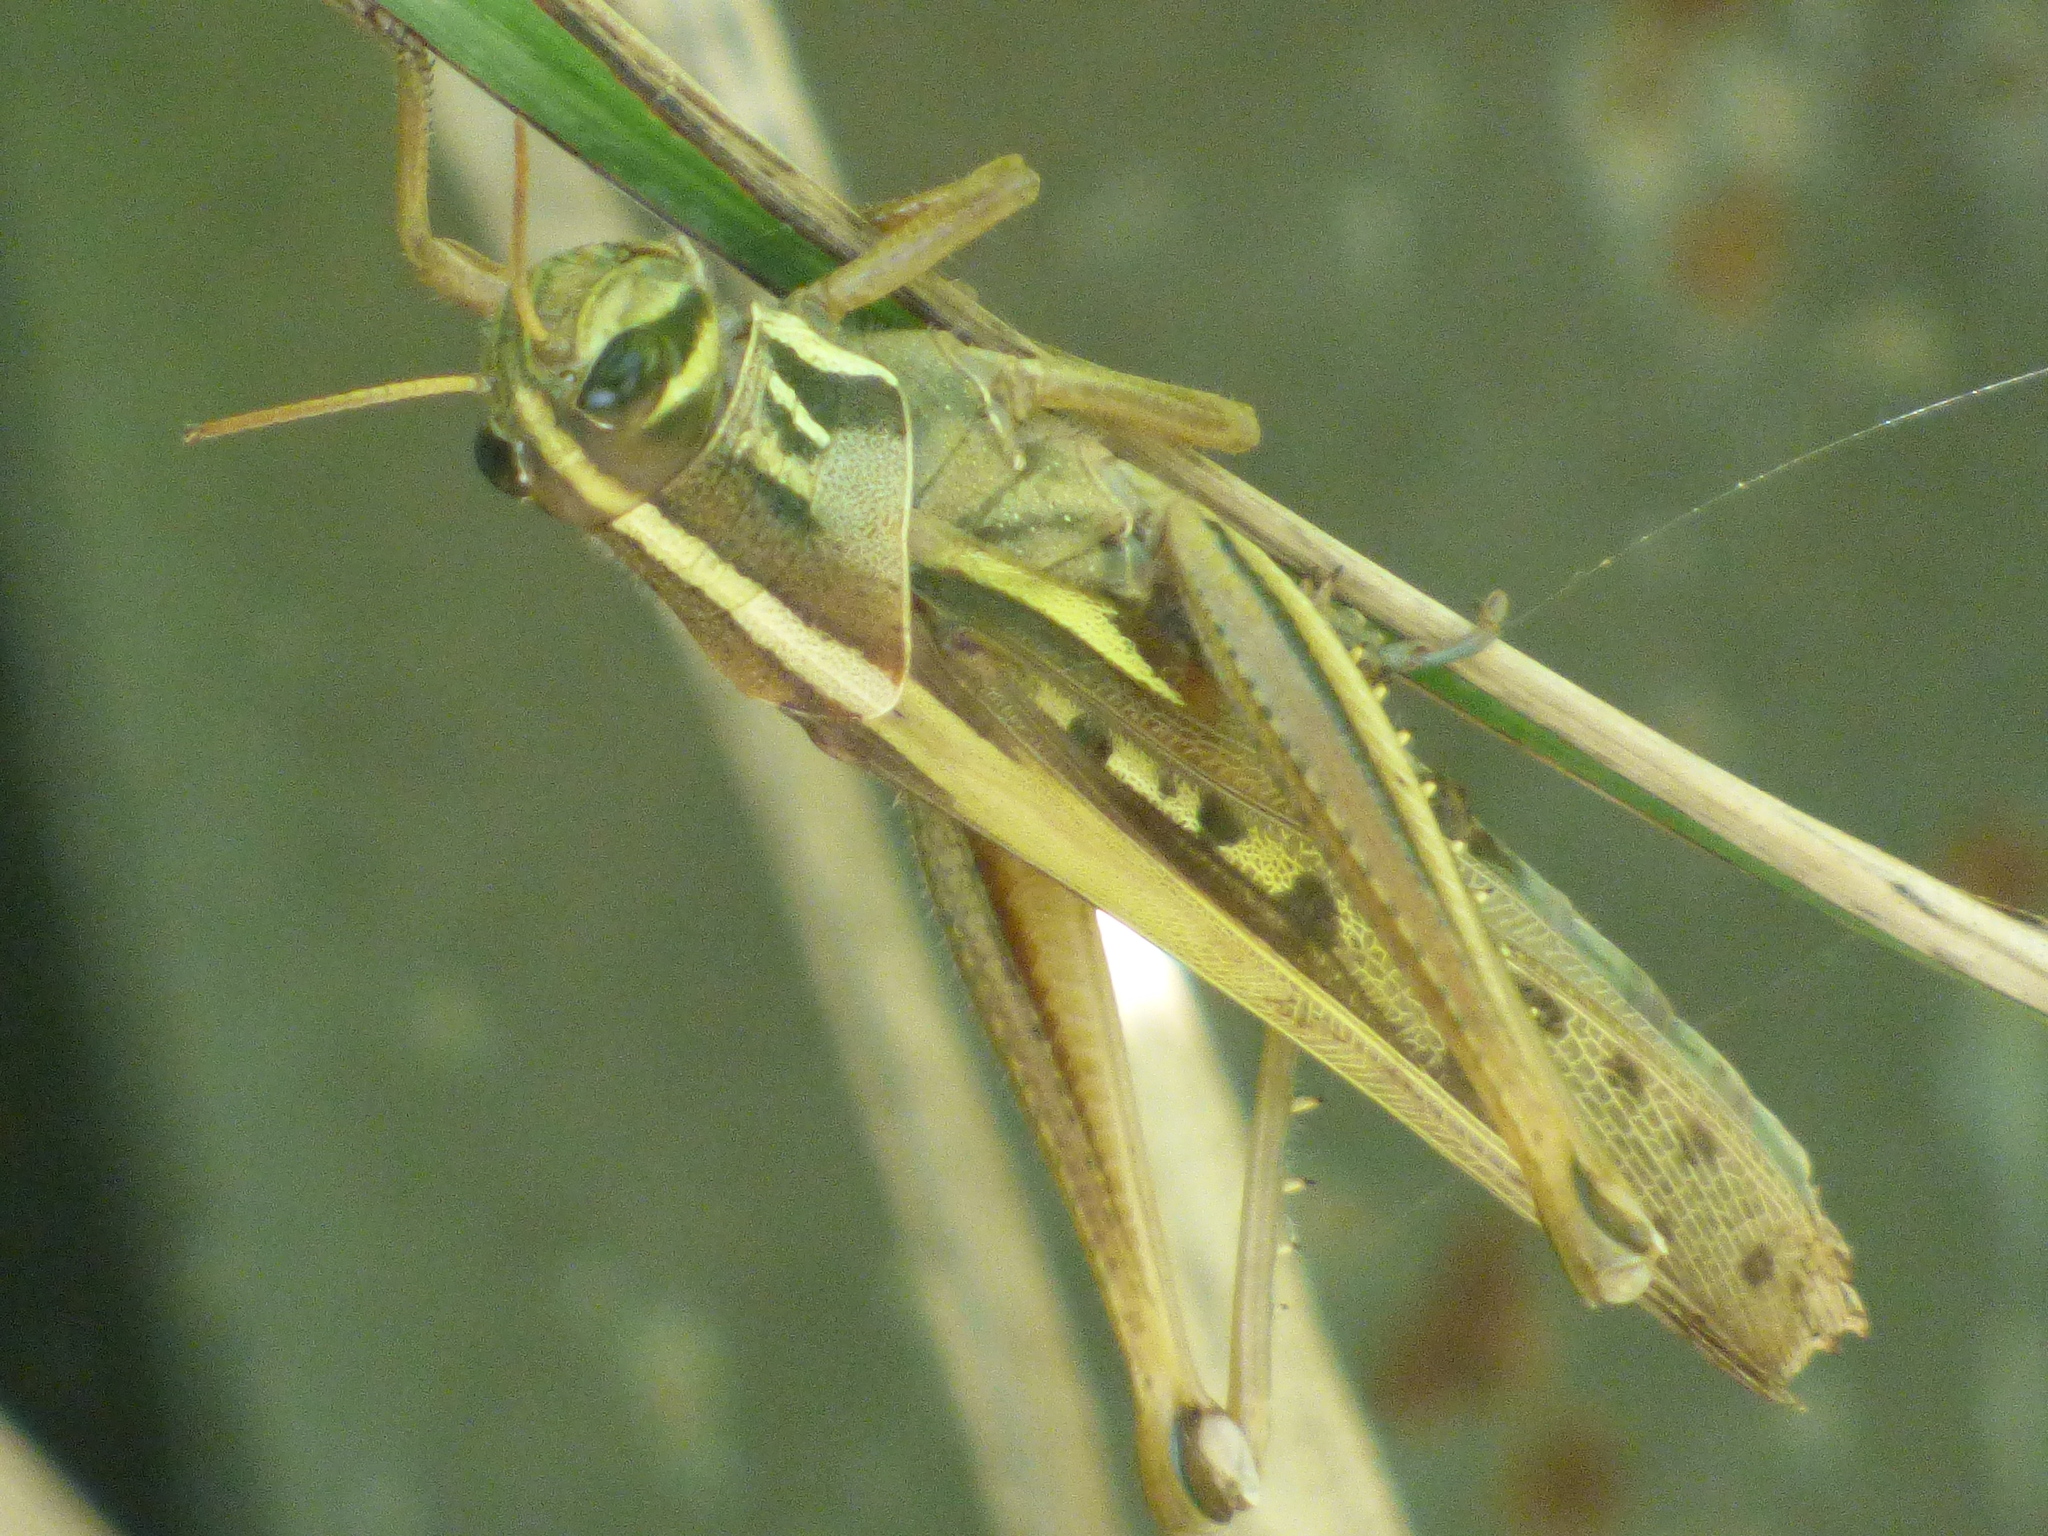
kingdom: Animalia
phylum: Arthropoda
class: Insecta
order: Orthoptera
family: Acrididae
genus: Patanga
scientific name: Patanga japonica
